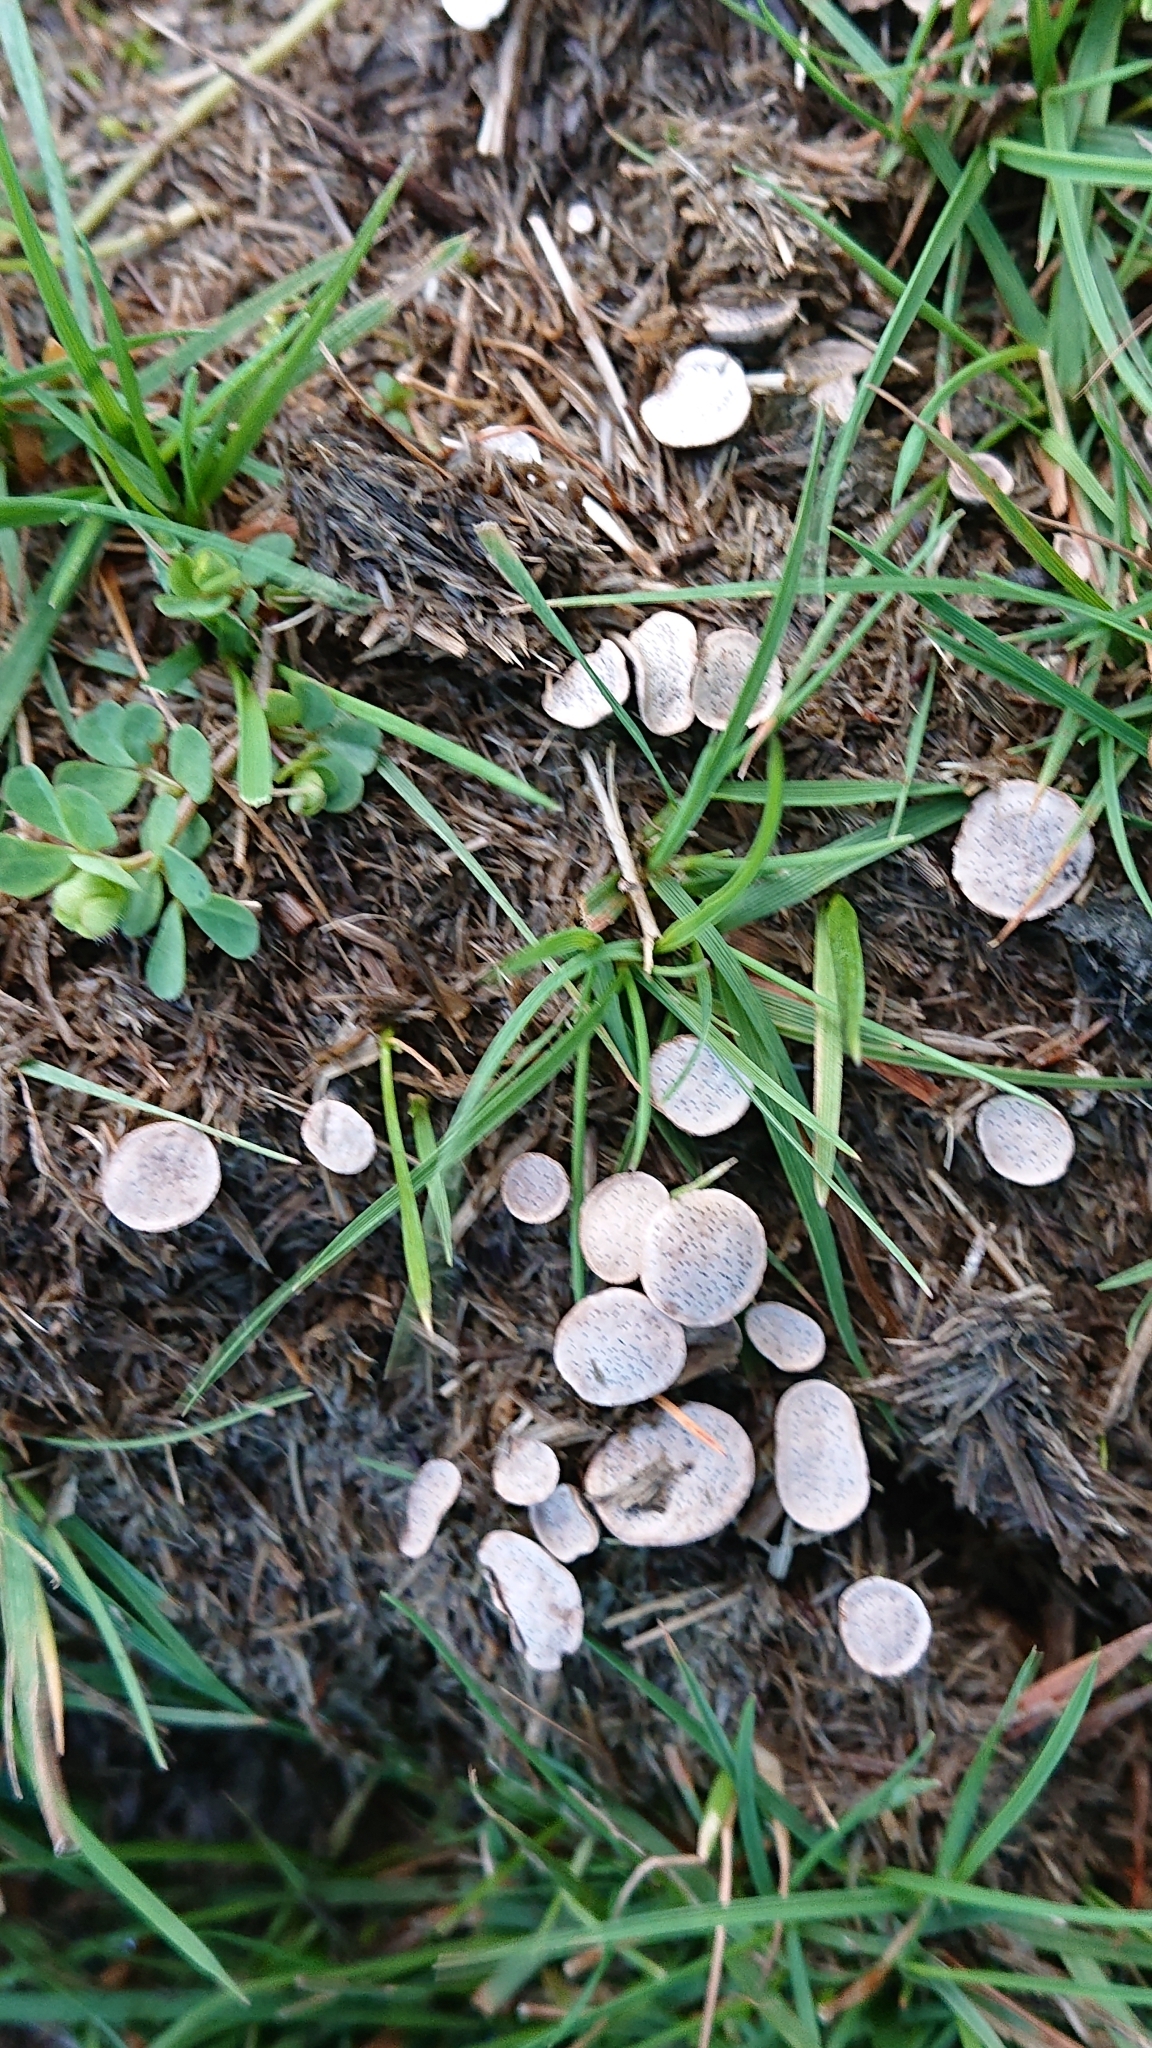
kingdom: Fungi
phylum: Ascomycota
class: Sordariomycetes
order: Xylariales
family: Xylariaceae
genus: Poronia
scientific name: Poronia punctata
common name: Nail fungus
